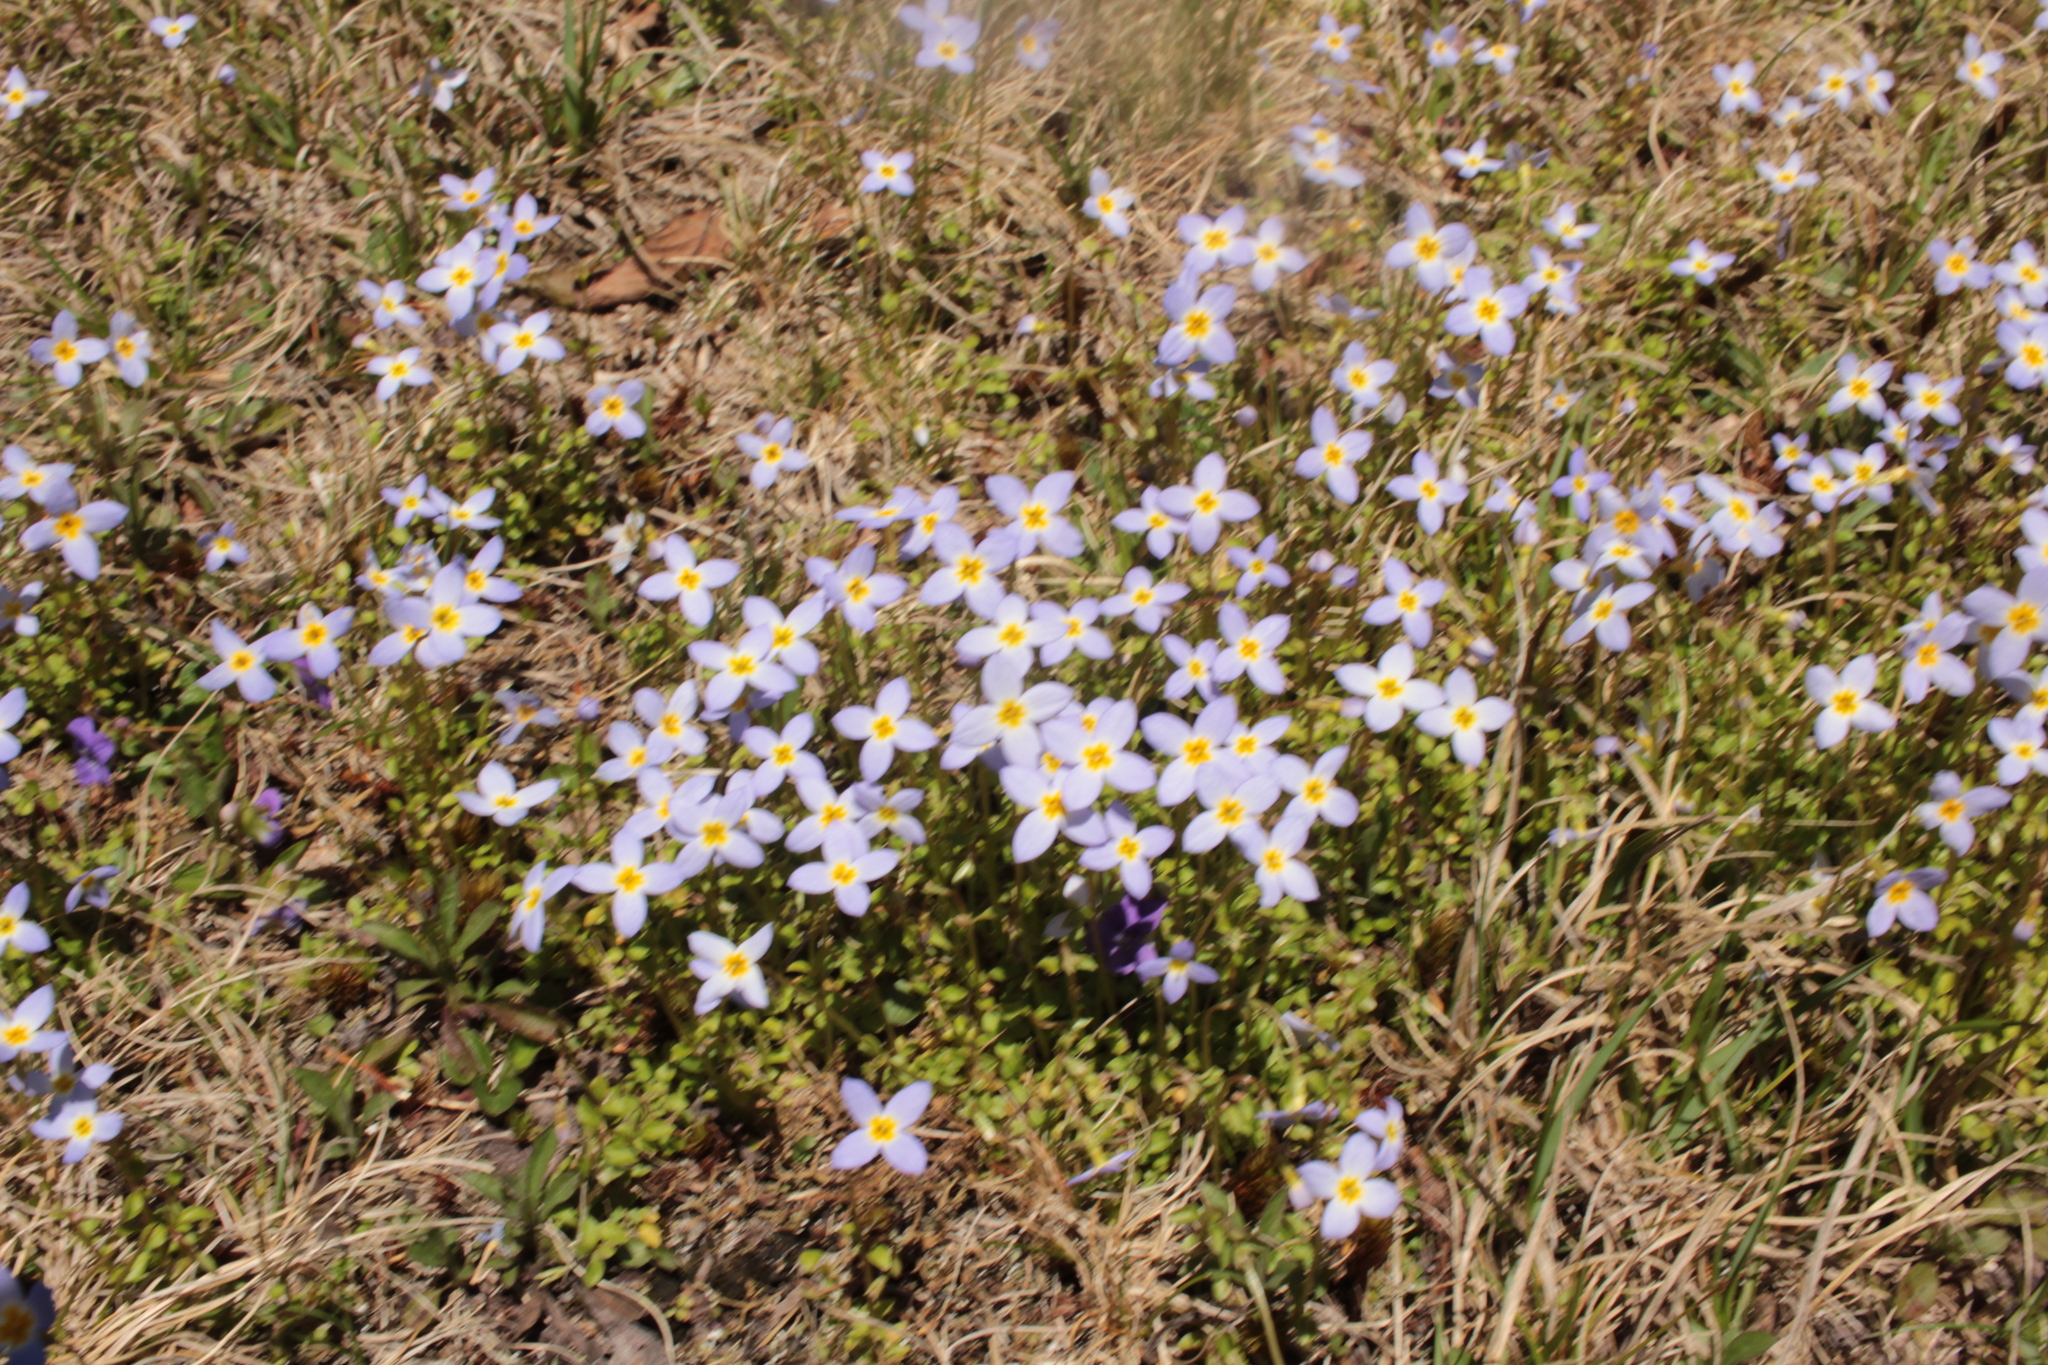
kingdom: Plantae
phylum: Tracheophyta
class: Magnoliopsida
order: Gentianales
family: Rubiaceae
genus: Houstonia
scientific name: Houstonia serpyllifolia
